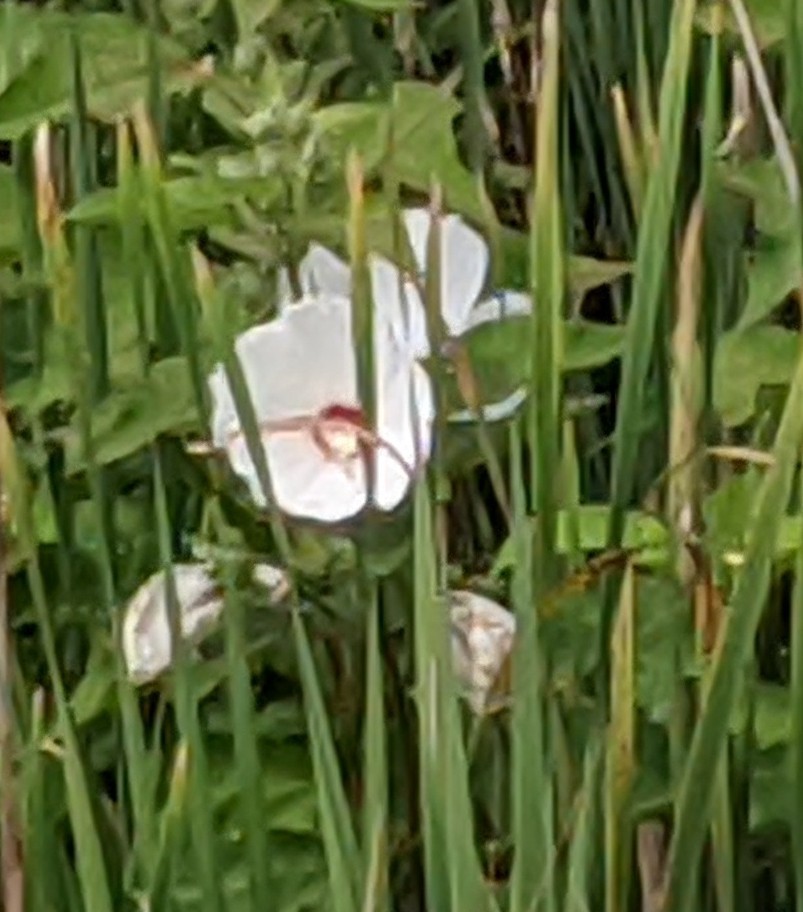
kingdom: Plantae
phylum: Tracheophyta
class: Magnoliopsida
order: Malvales
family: Malvaceae
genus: Hibiscus
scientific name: Hibiscus moscheutos
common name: Common rose-mallow
